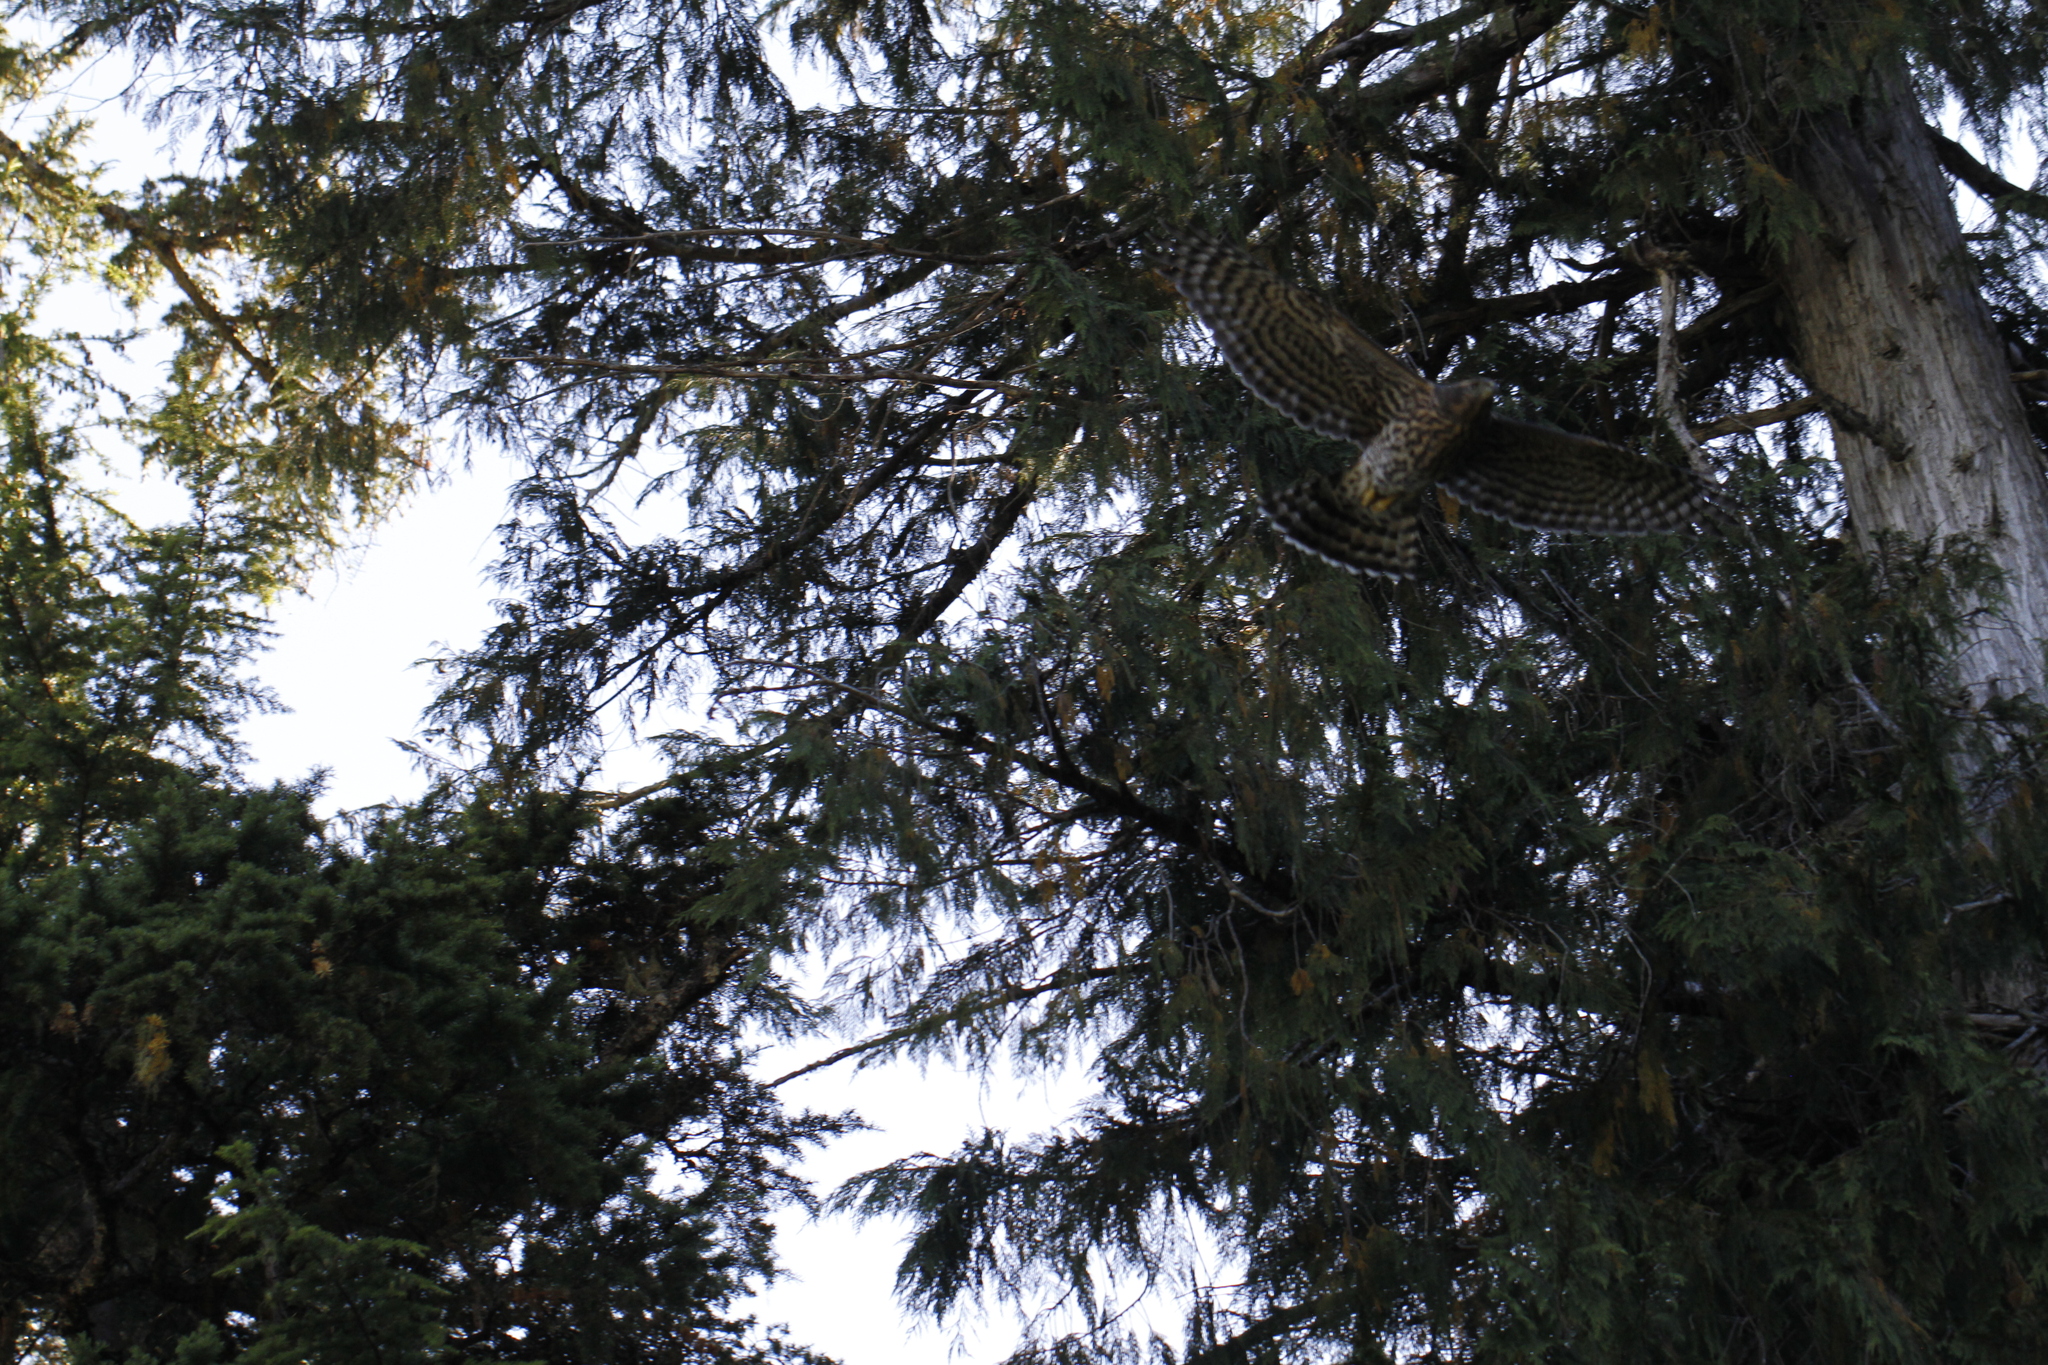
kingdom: Animalia
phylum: Chordata
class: Aves
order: Accipitriformes
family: Accipitridae
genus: Accipiter
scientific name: Accipiter gentilis
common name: Northern goshawk
